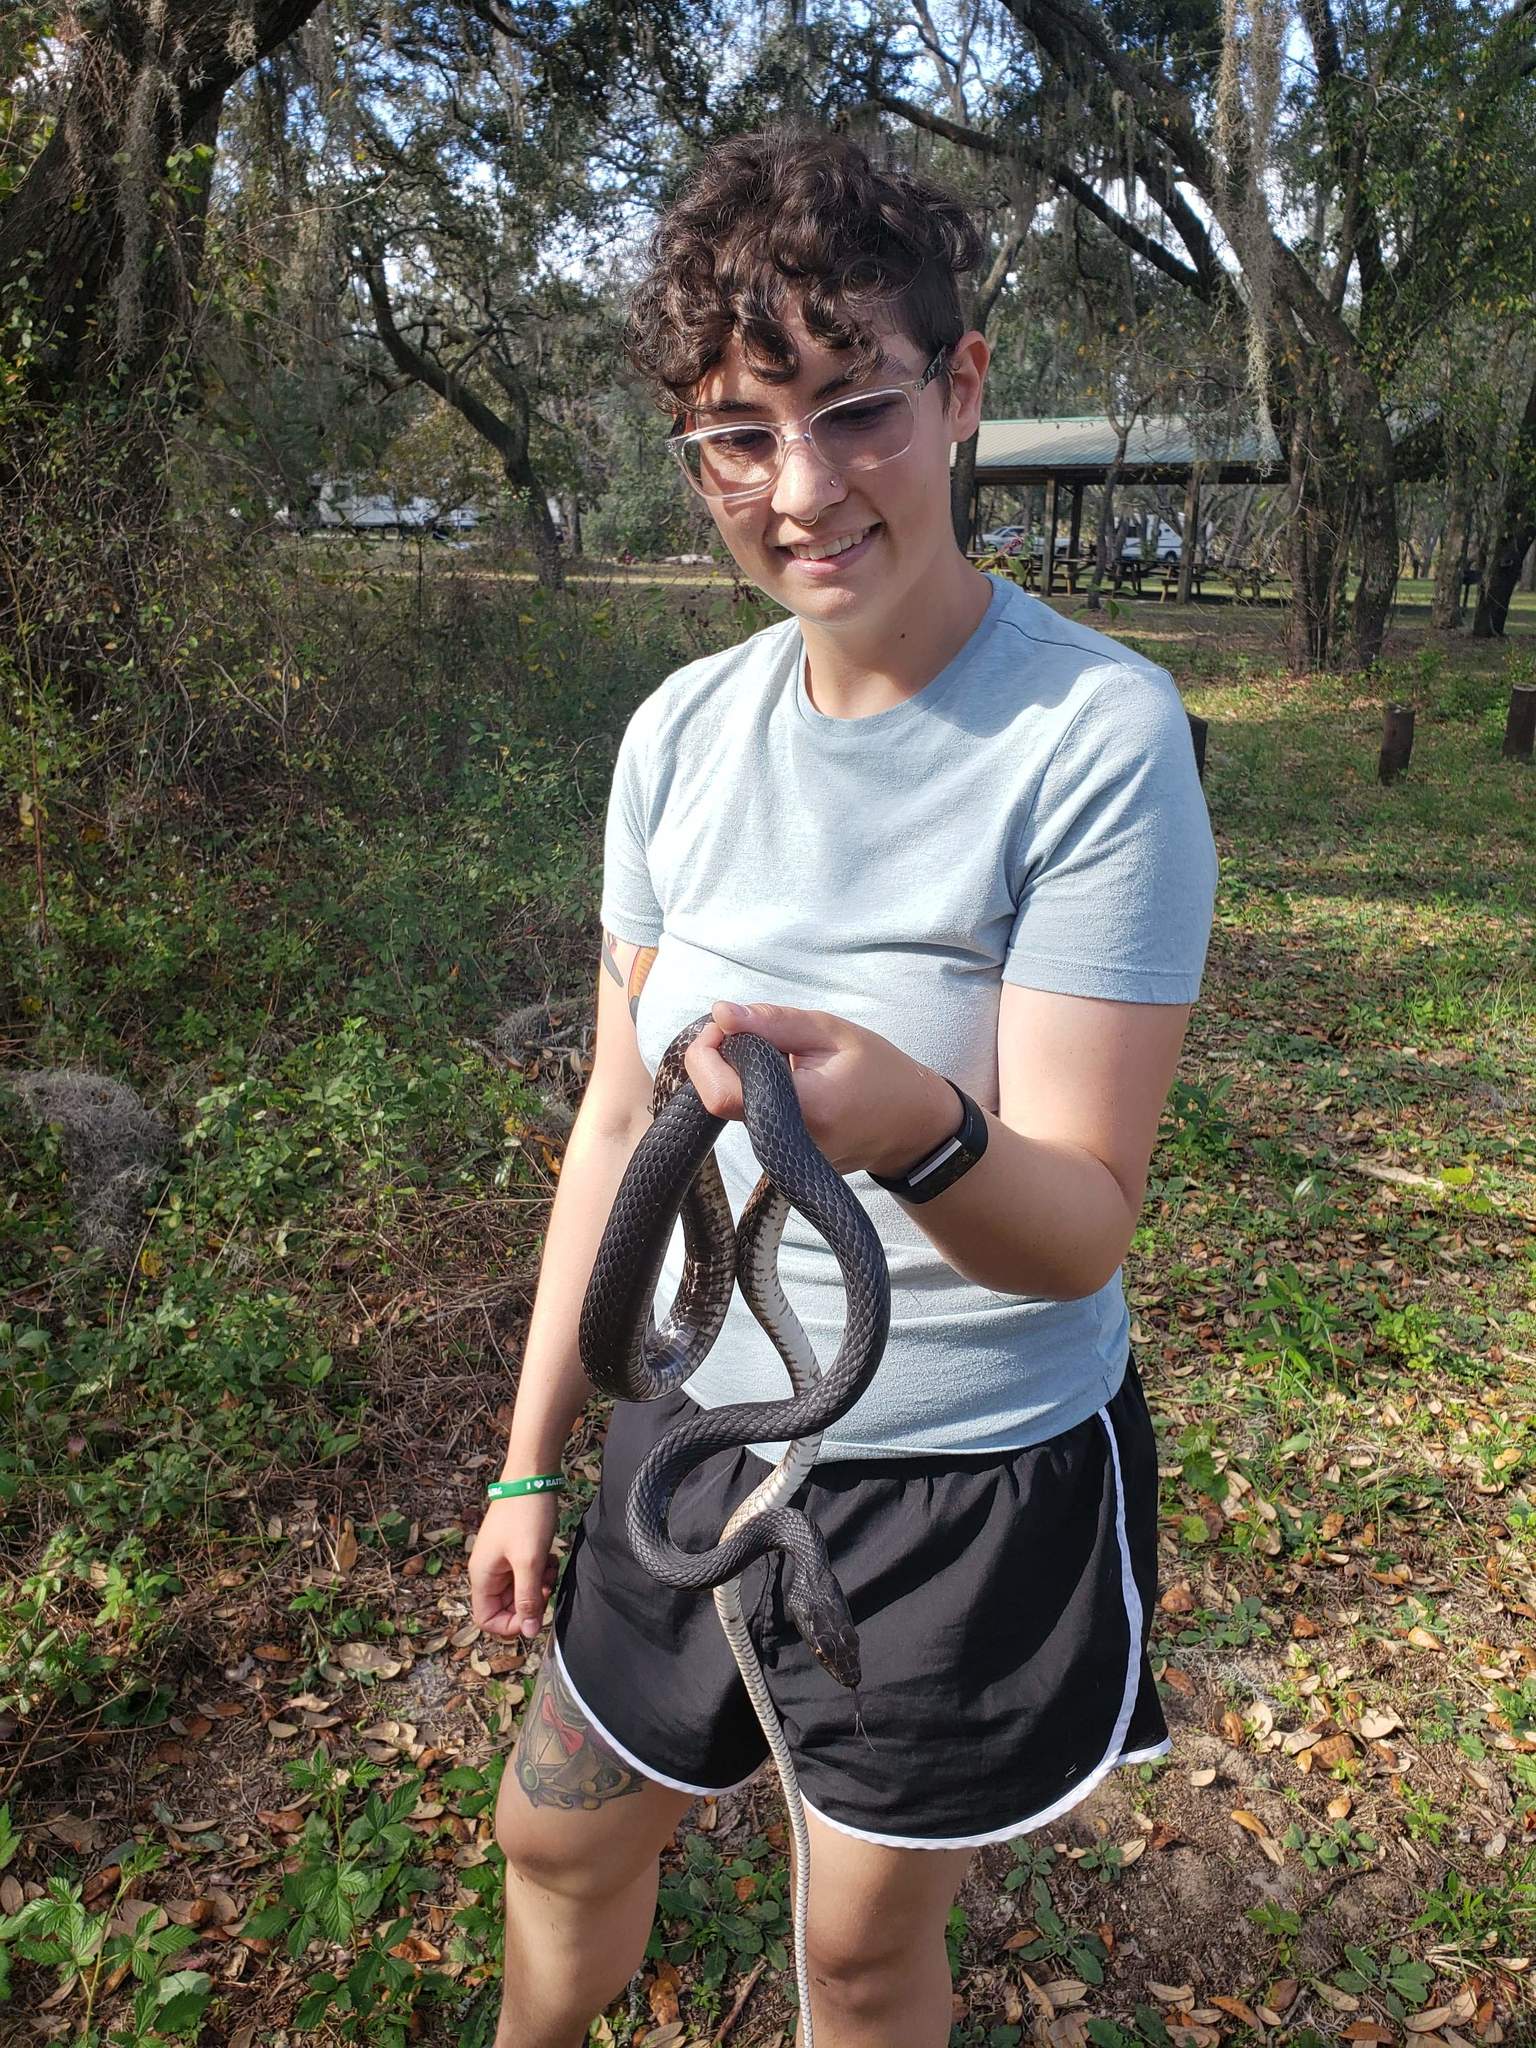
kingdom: Animalia
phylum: Chordata
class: Squamata
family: Colubridae
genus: Masticophis
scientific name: Masticophis flagellum
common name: Coachwhip
